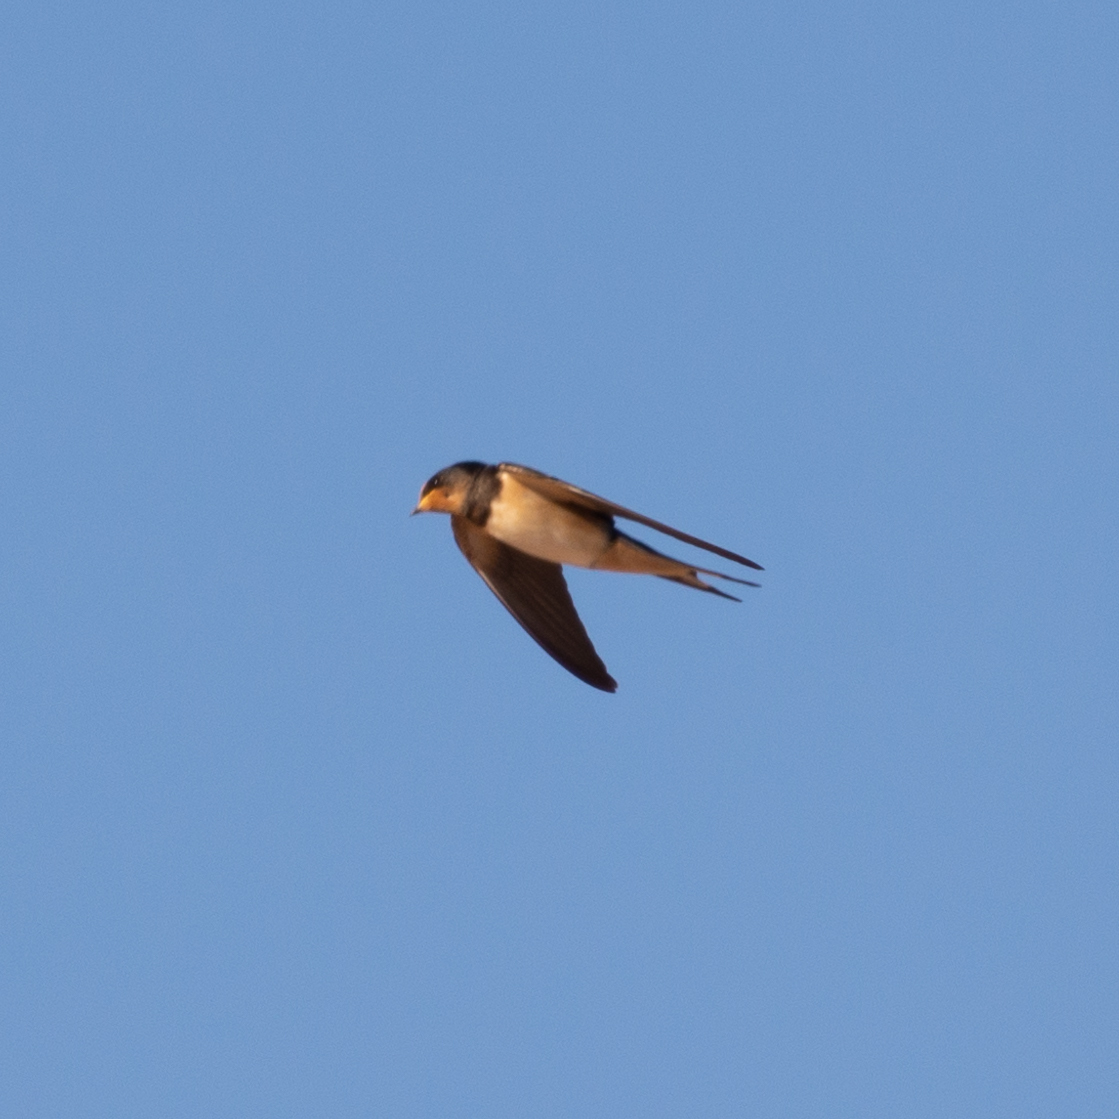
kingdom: Animalia
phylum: Chordata
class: Aves
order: Passeriformes
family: Hirundinidae
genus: Hirundo
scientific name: Hirundo rustica
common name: Barn swallow
